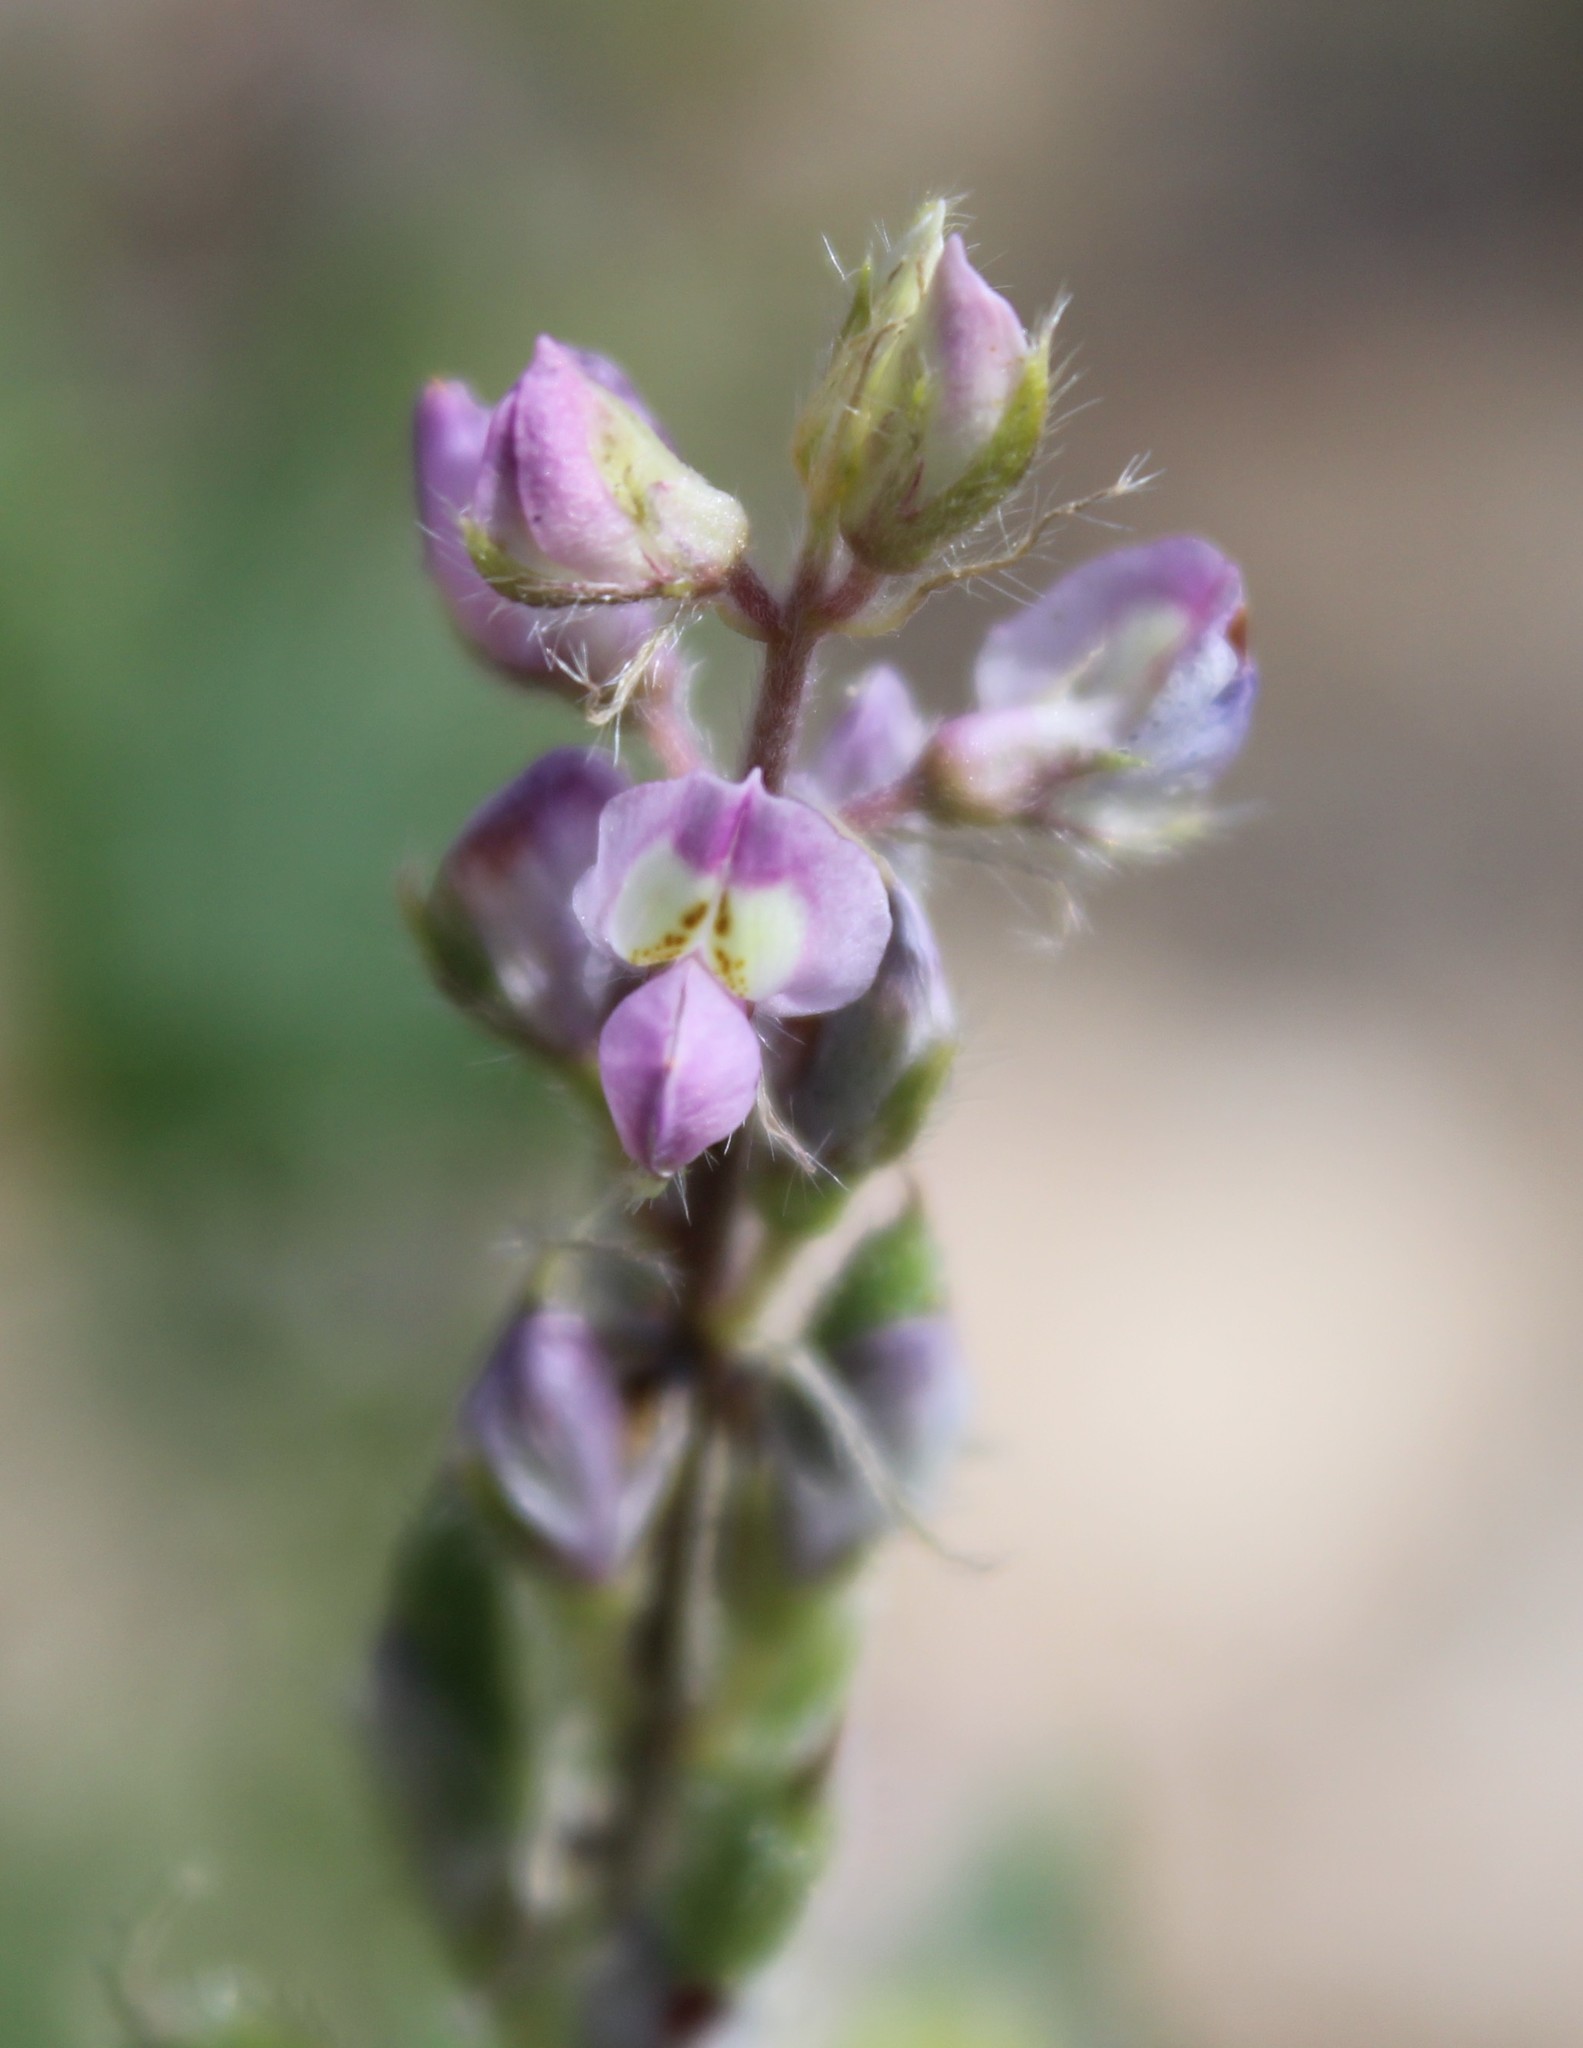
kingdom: Plantae
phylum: Tracheophyta
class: Magnoliopsida
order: Fabales
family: Fabaceae
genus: Lupinus
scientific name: Lupinus arizonicus
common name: Arizona lupine
